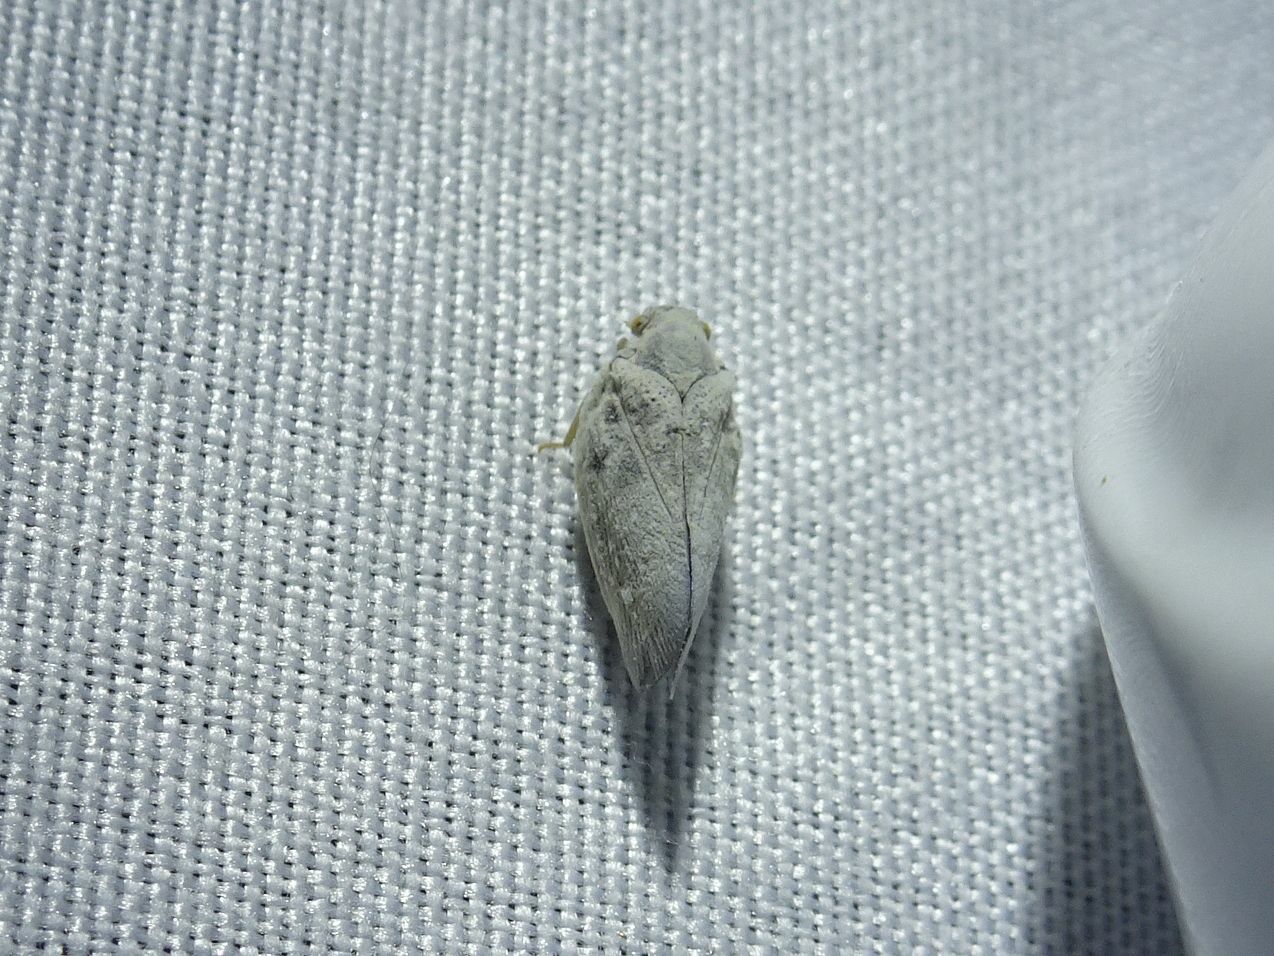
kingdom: Animalia
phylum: Arthropoda
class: Insecta
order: Hemiptera
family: Flatidae
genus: Metcalfa
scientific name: Metcalfa pruinosa
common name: Citrus flatid planthopper
